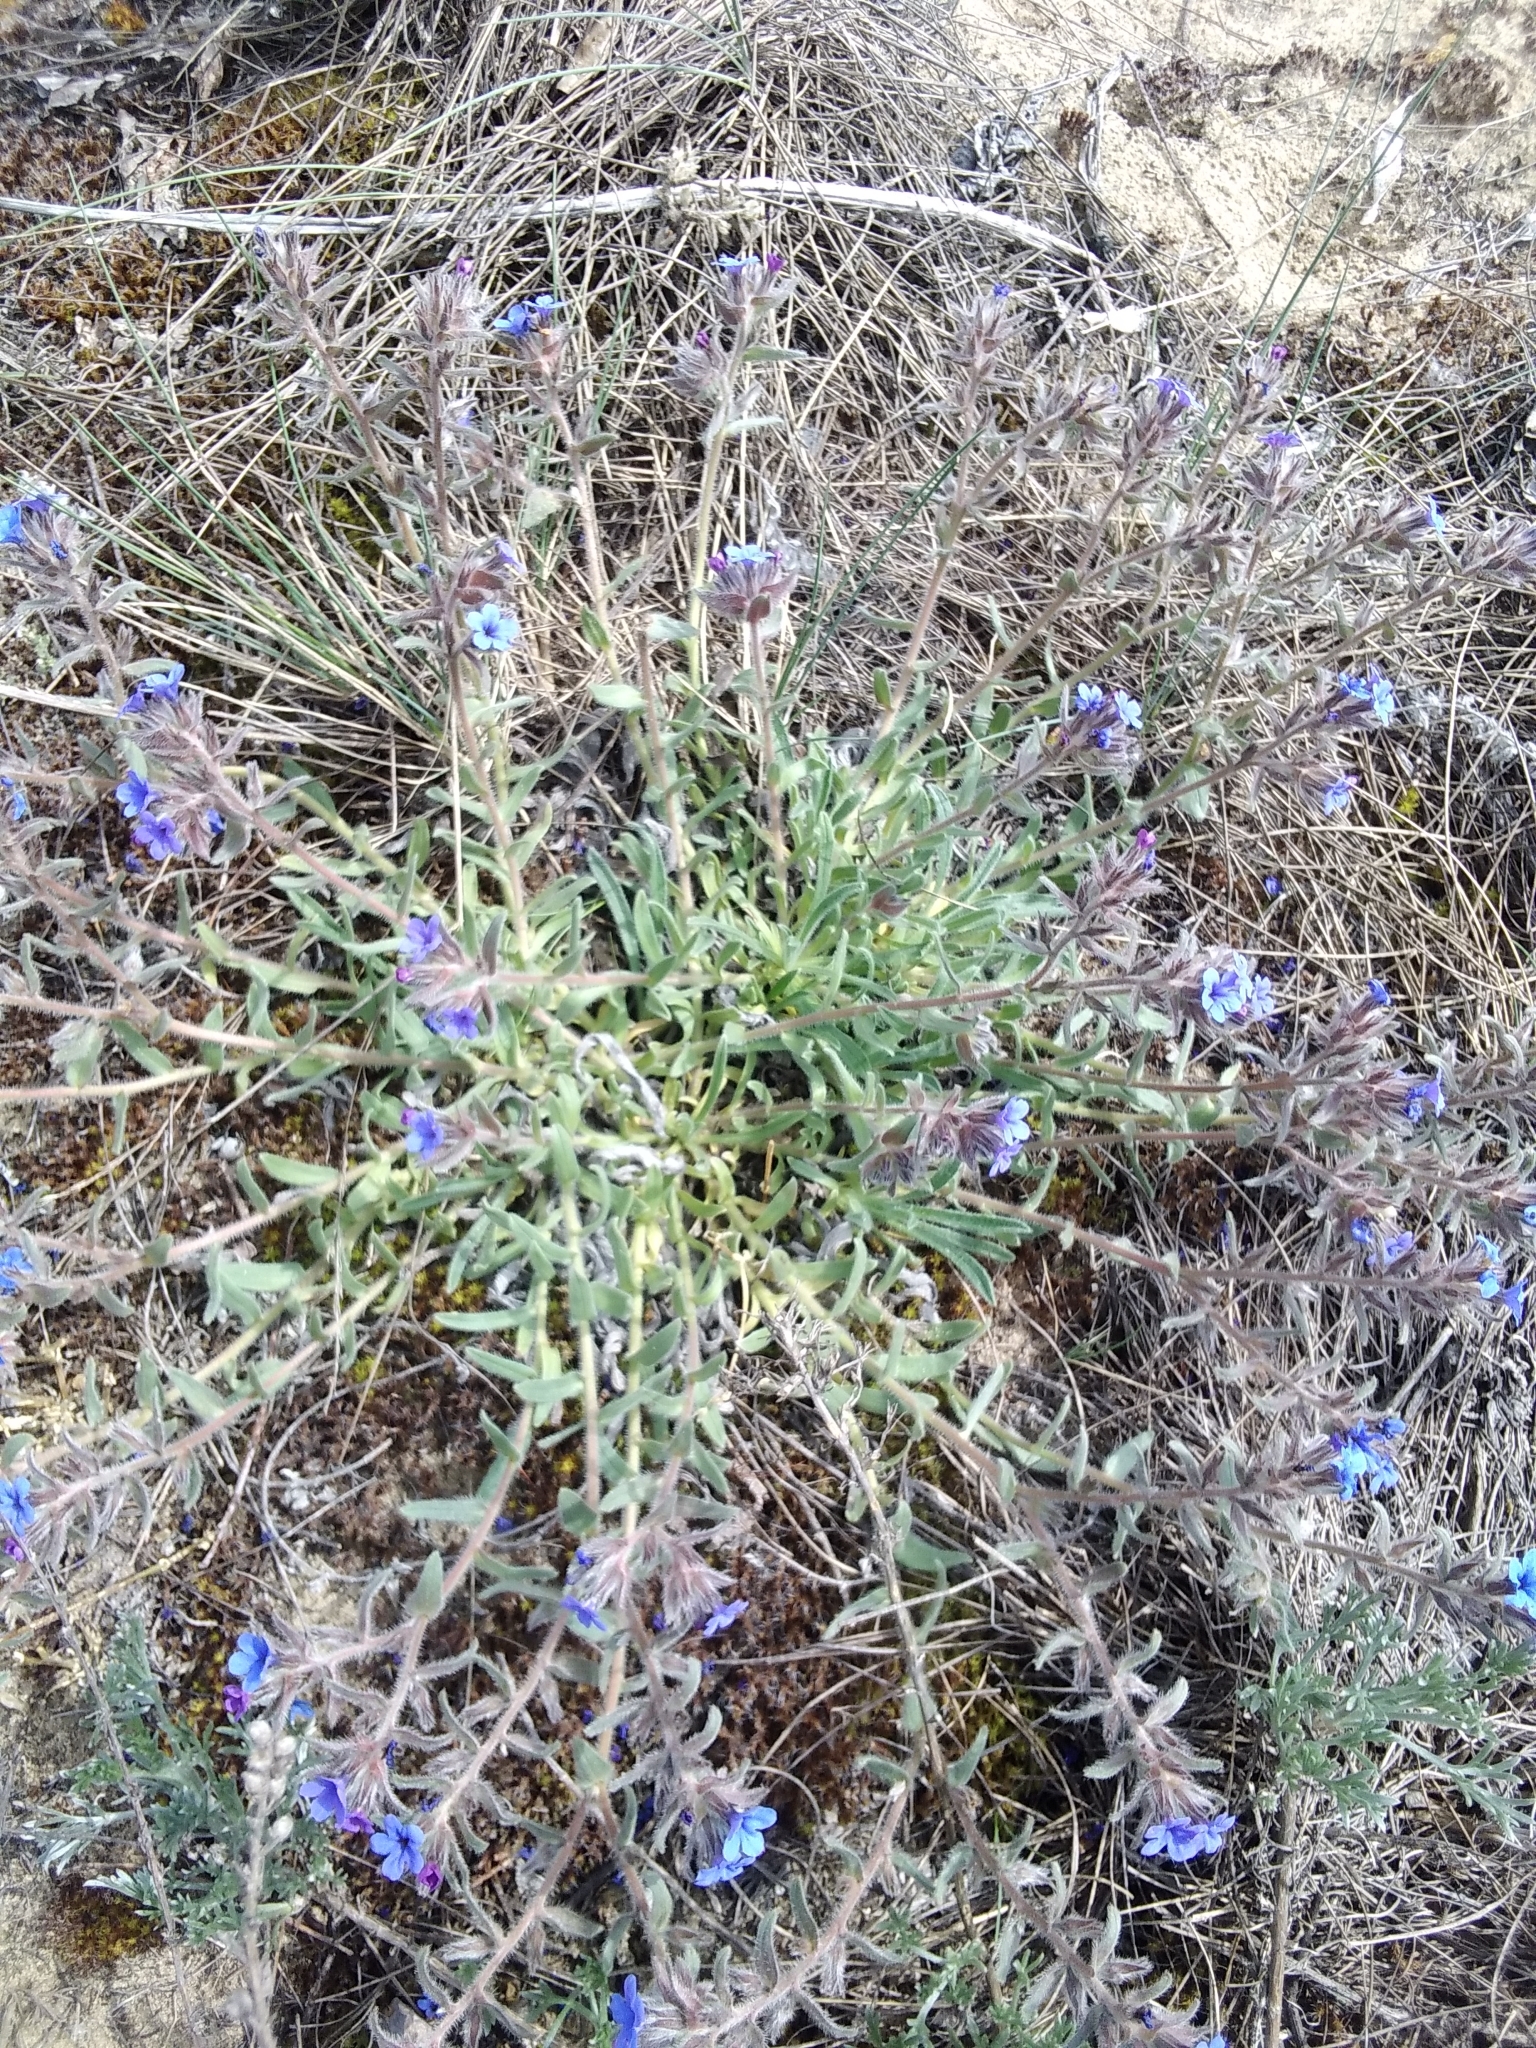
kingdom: Plantae
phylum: Tracheophyta
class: Magnoliopsida
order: Boraginales
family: Boraginaceae
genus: Alkanna
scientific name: Alkanna tinctoria
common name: Dyer's-alkanet
